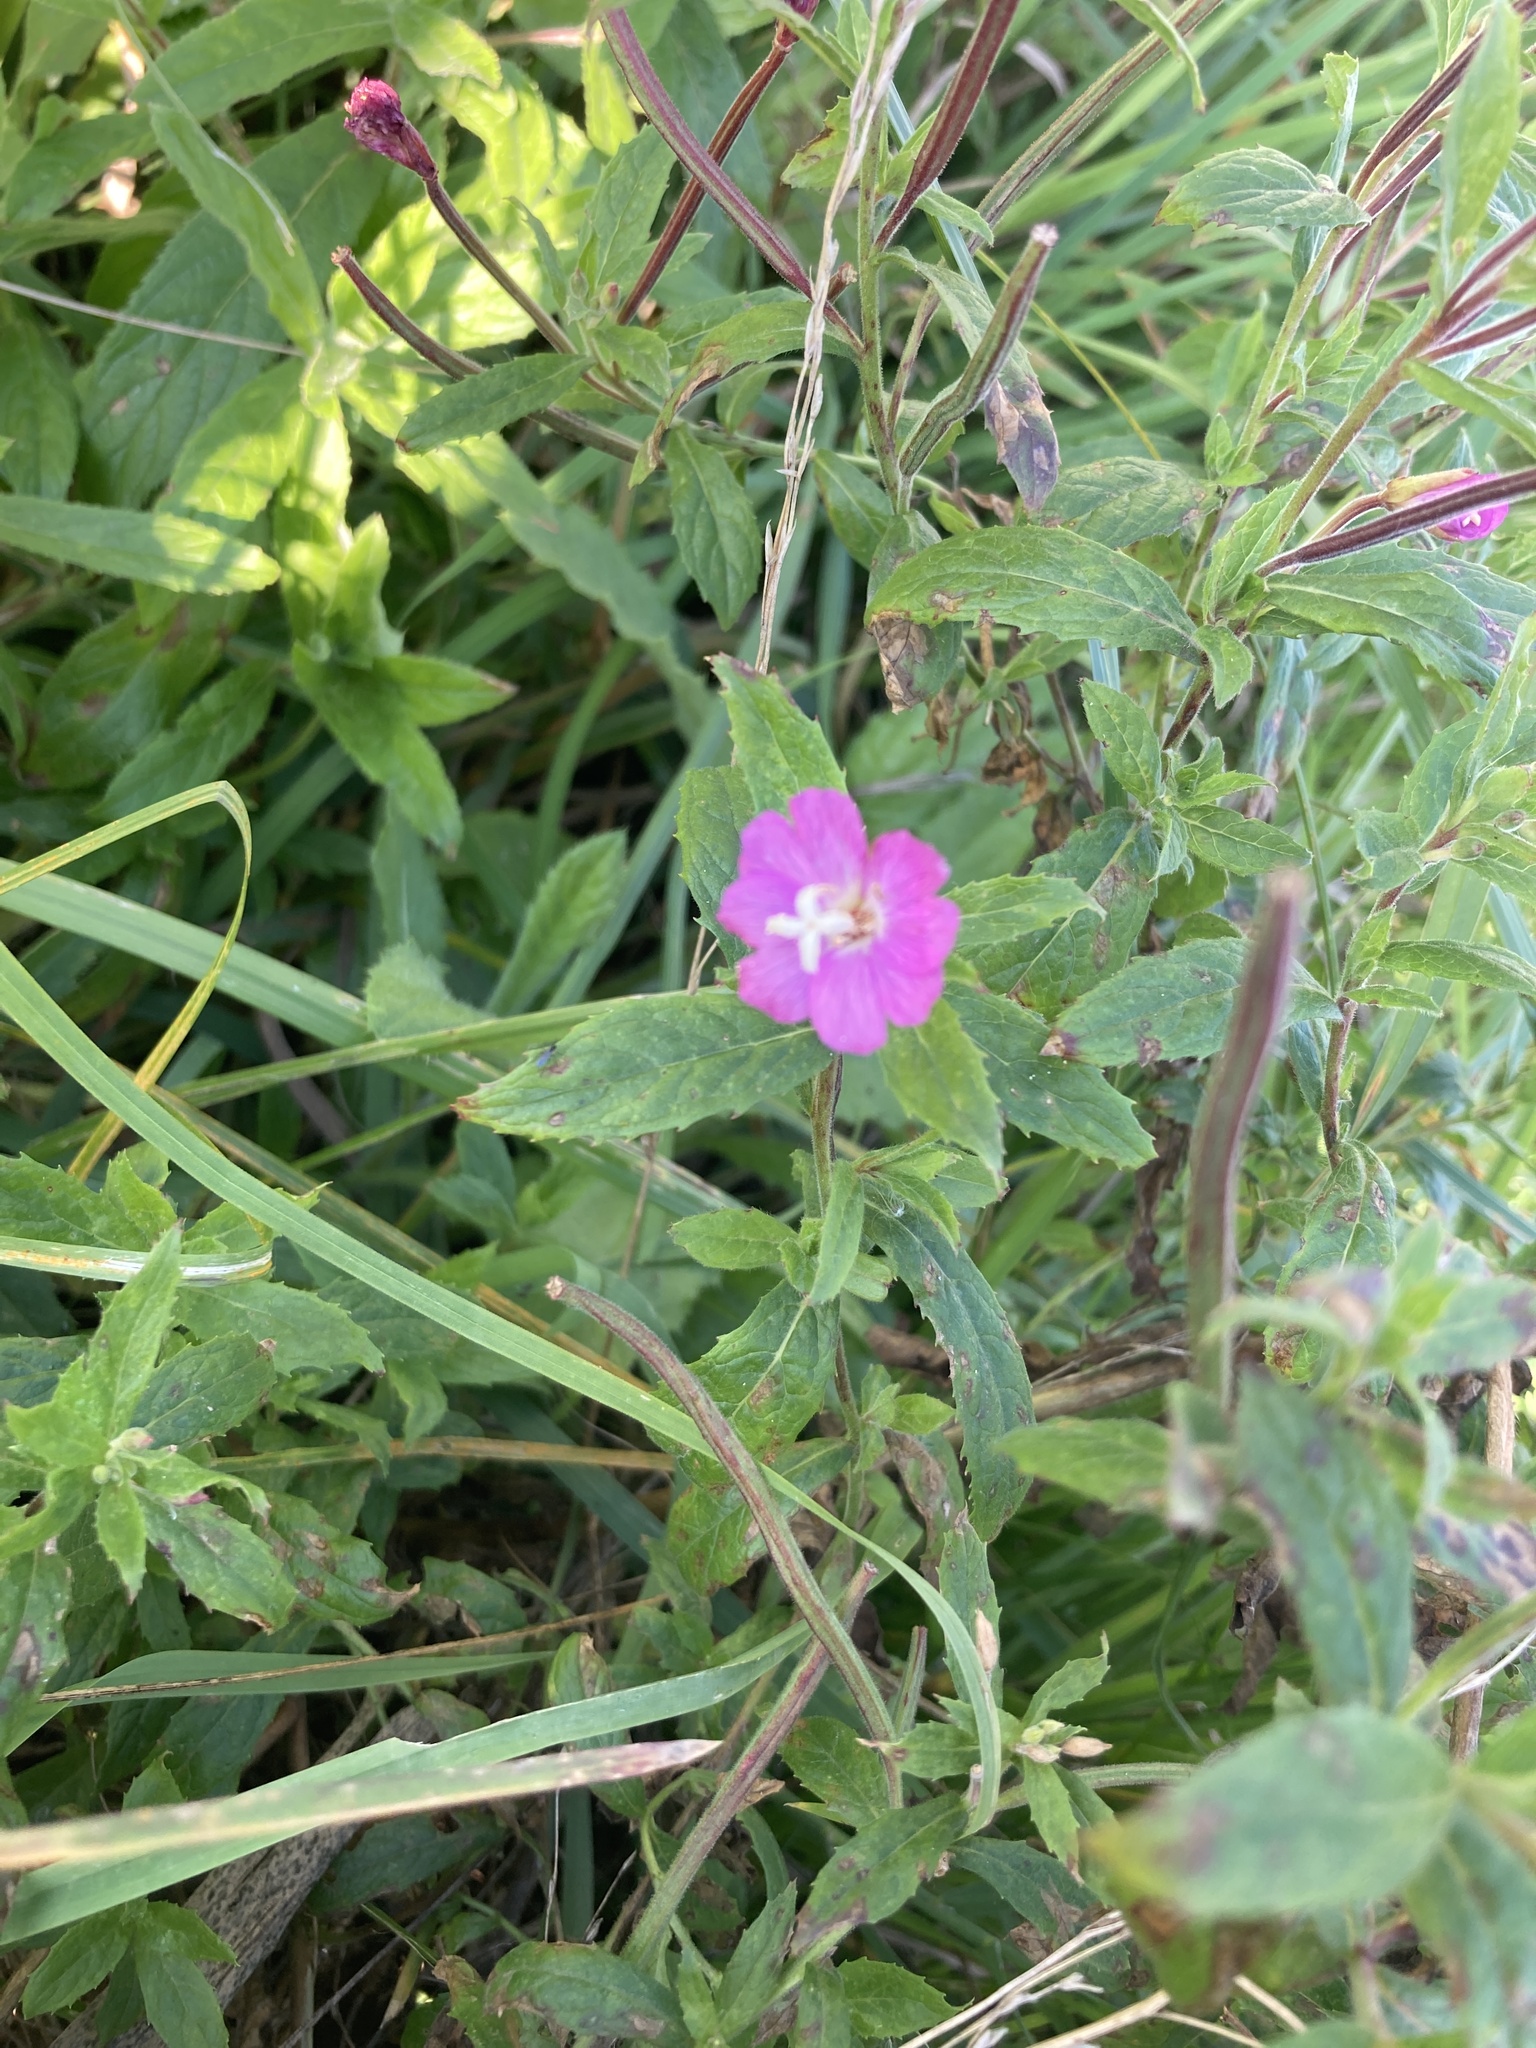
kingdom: Plantae
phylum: Tracheophyta
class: Magnoliopsida
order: Myrtales
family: Onagraceae
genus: Epilobium
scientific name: Epilobium hirsutum
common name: Great willowherb
